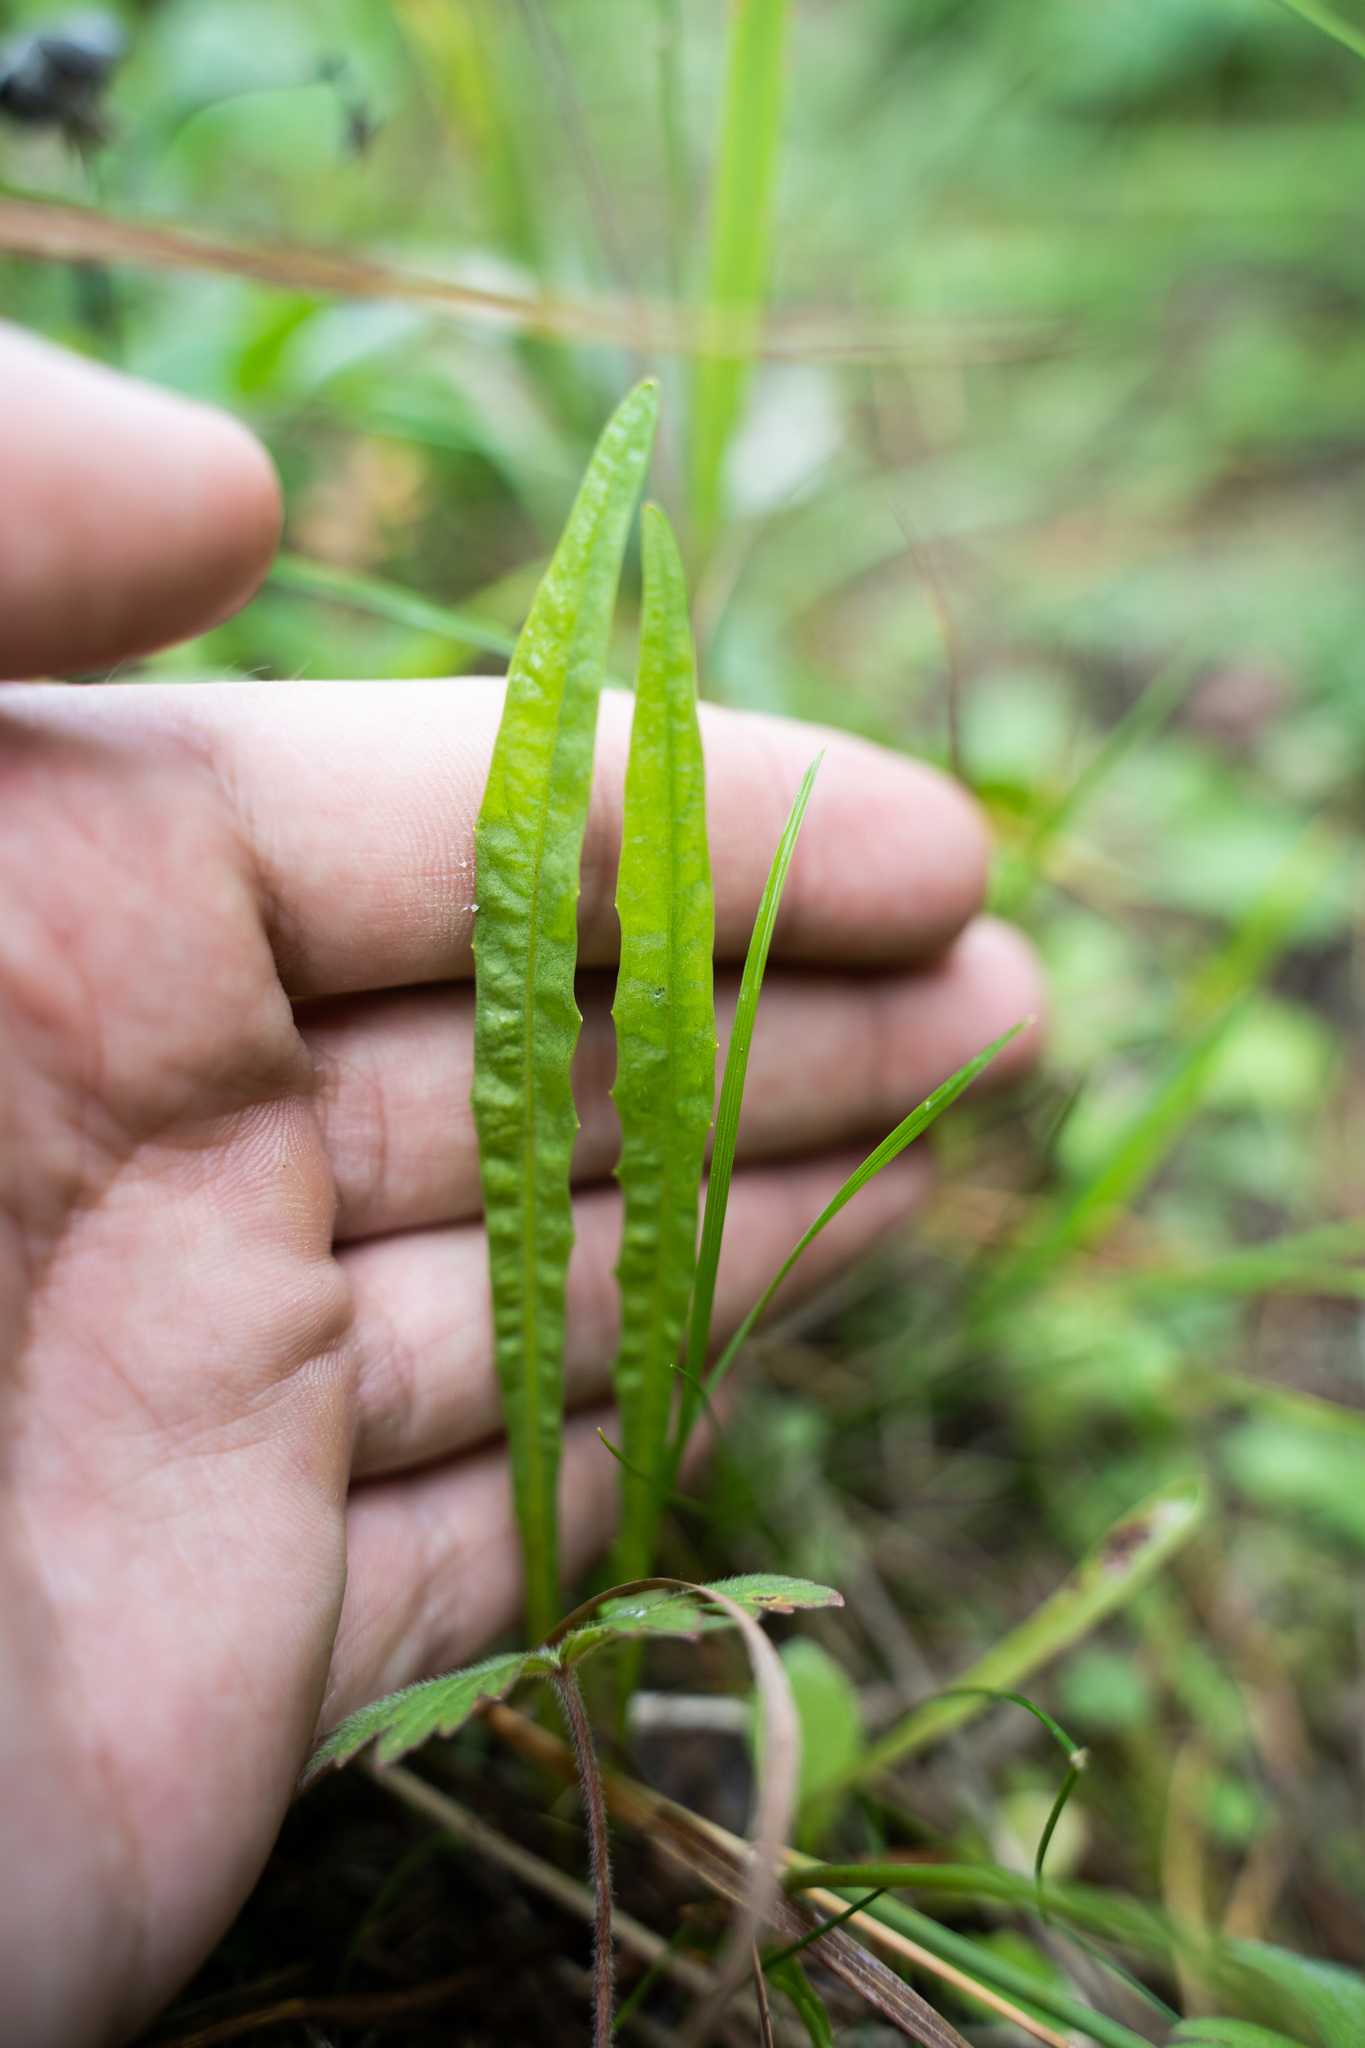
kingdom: Plantae
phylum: Tracheophyta
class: Magnoliopsida
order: Asterales
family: Asteraceae
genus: Scorzoneroides
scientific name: Scorzoneroides autumnalis
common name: Autumn hawkbit
